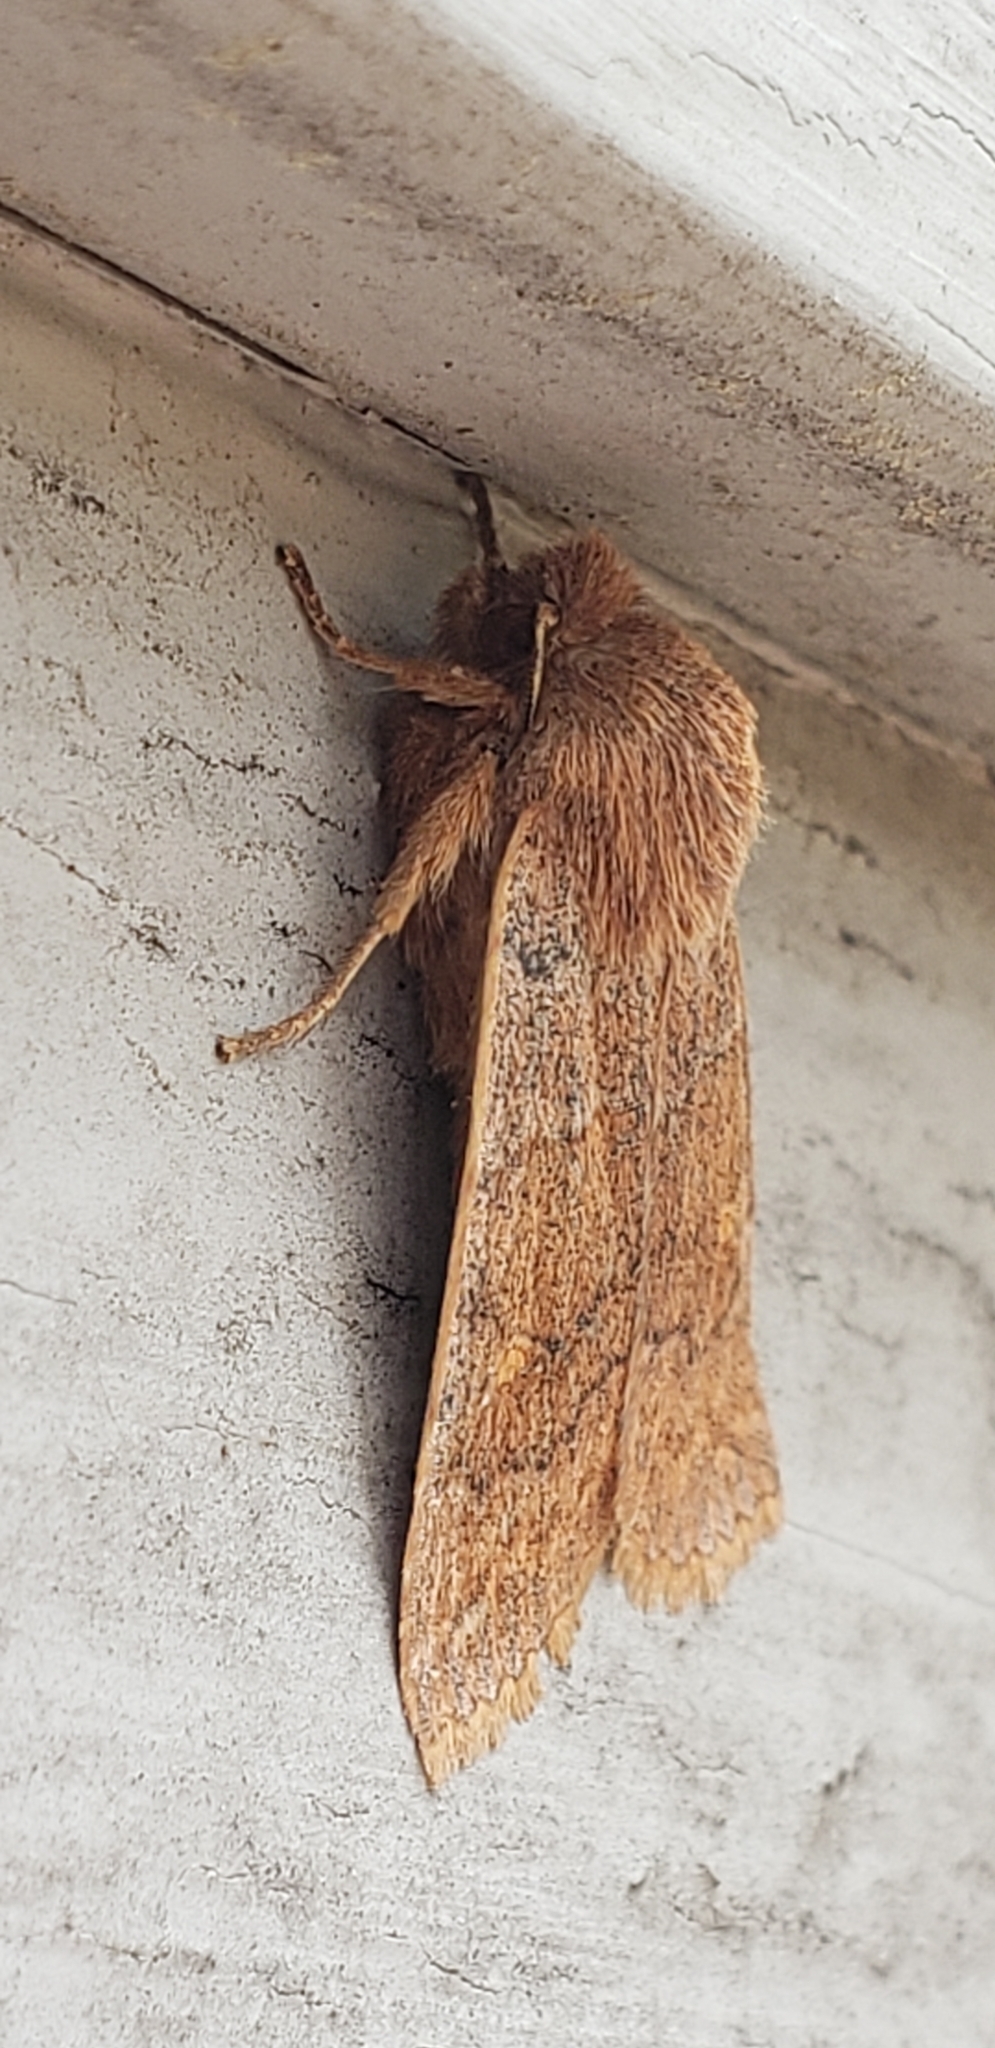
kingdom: Animalia
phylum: Arthropoda
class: Insecta
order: Lepidoptera
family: Noctuidae
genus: Eupsilia
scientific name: Eupsilia vinulenta
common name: Straight-toothed sallow
